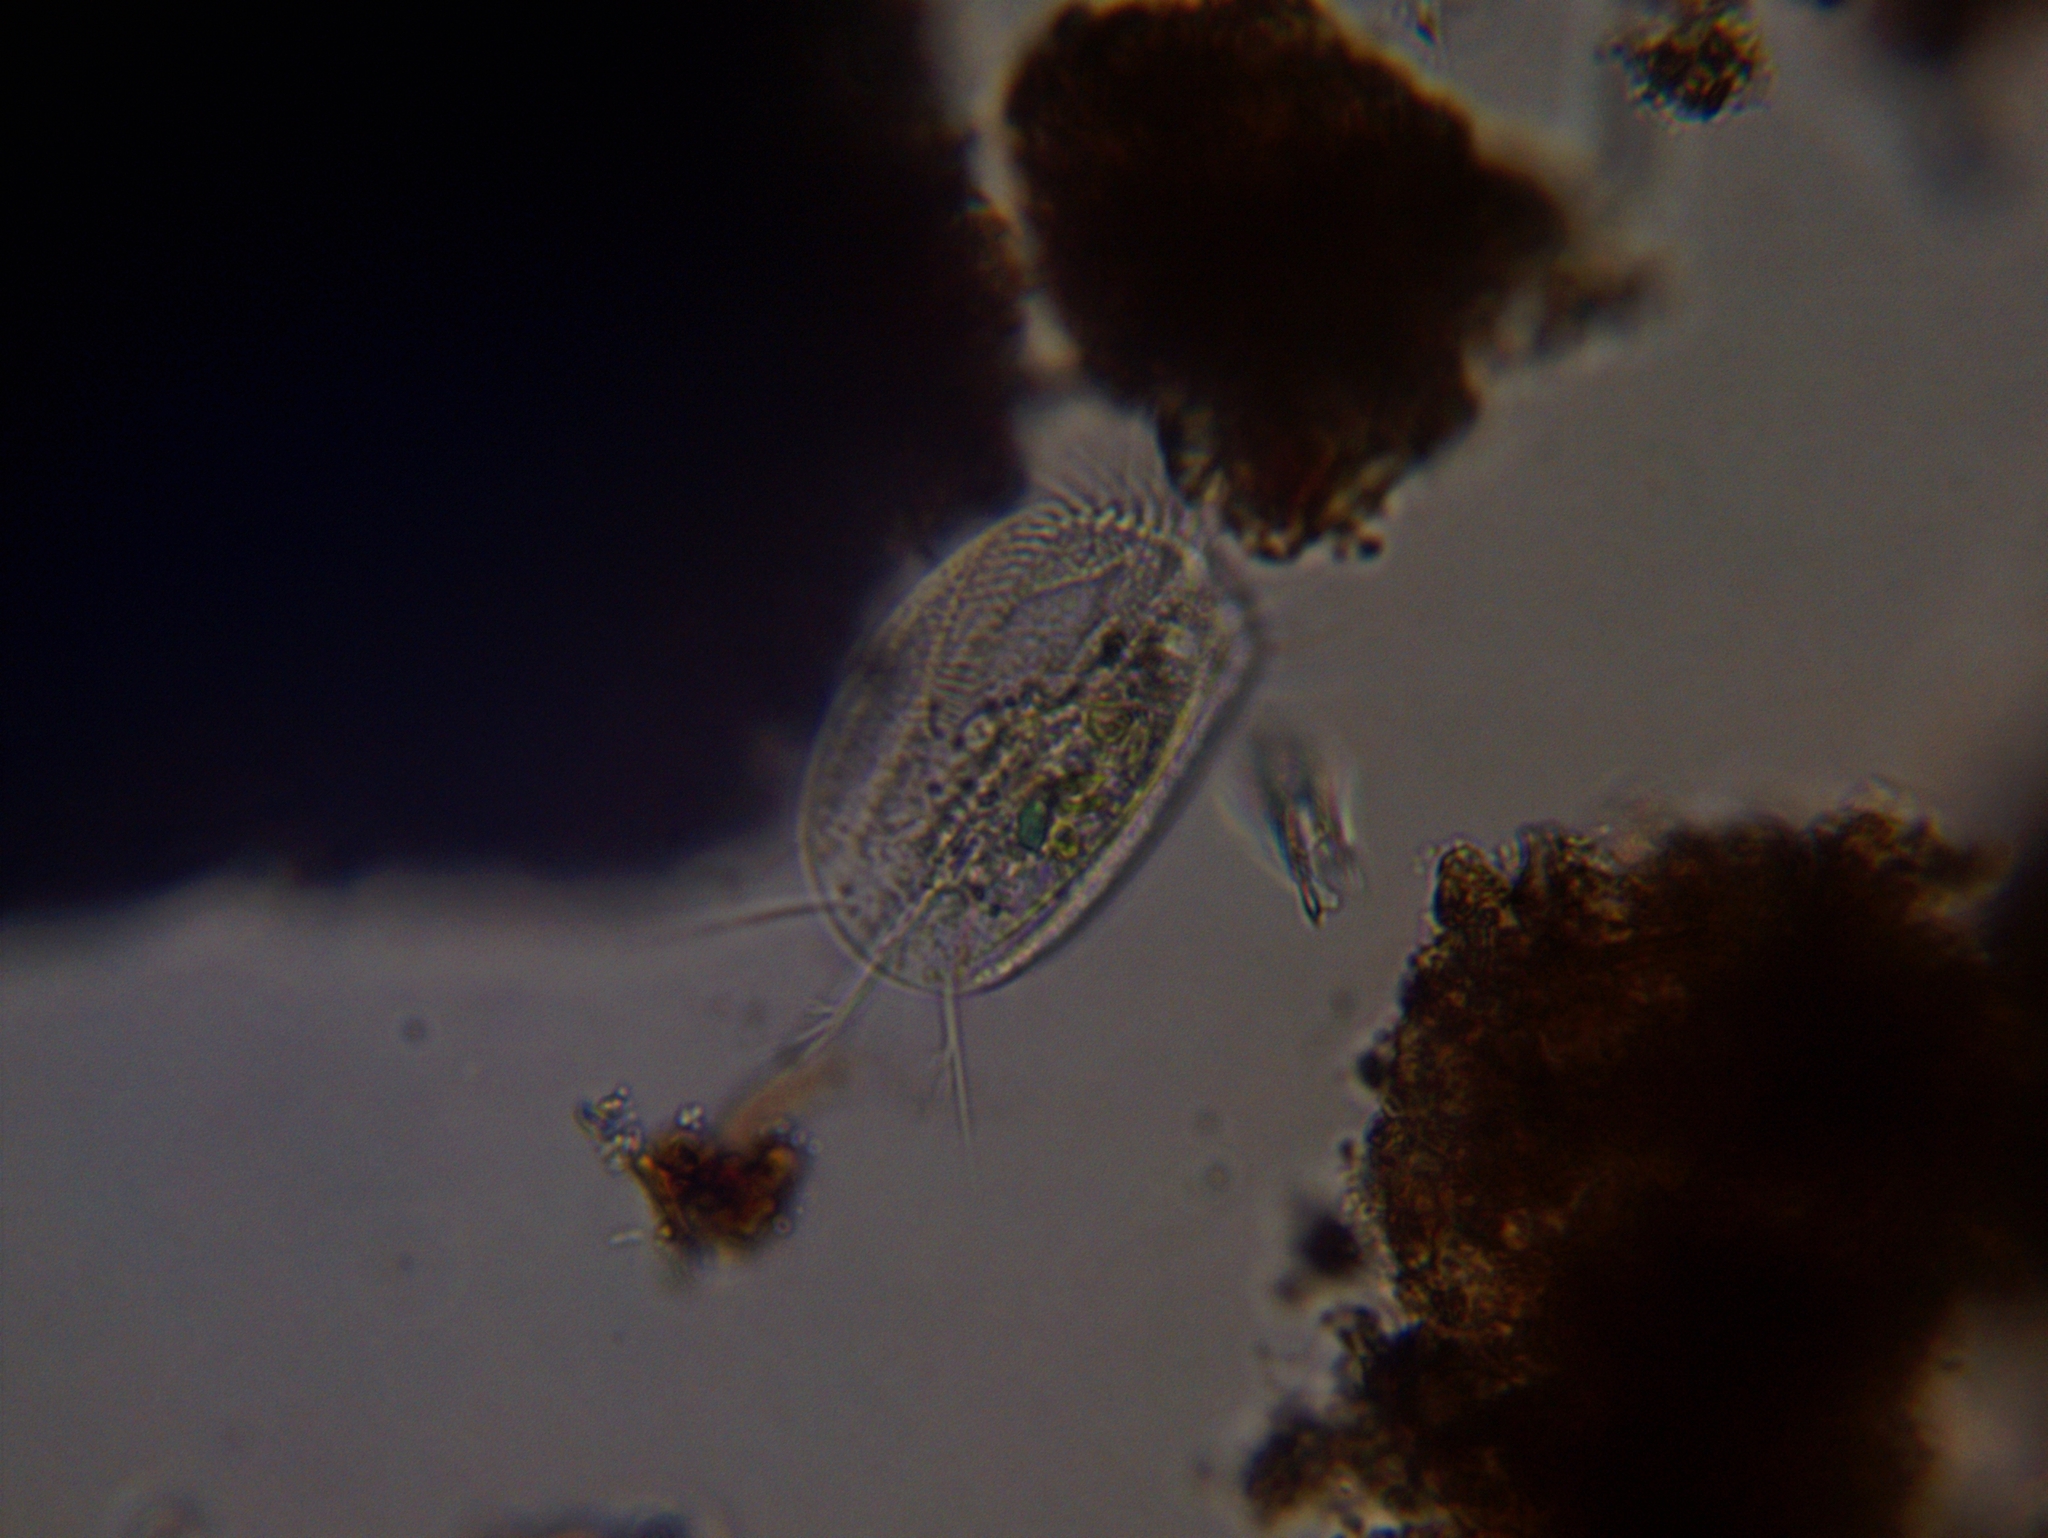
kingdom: Chromista
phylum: Ciliophora
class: Hypotrichea
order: Euplotida
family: Euplotidae
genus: Euplotes
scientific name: Euplotes
